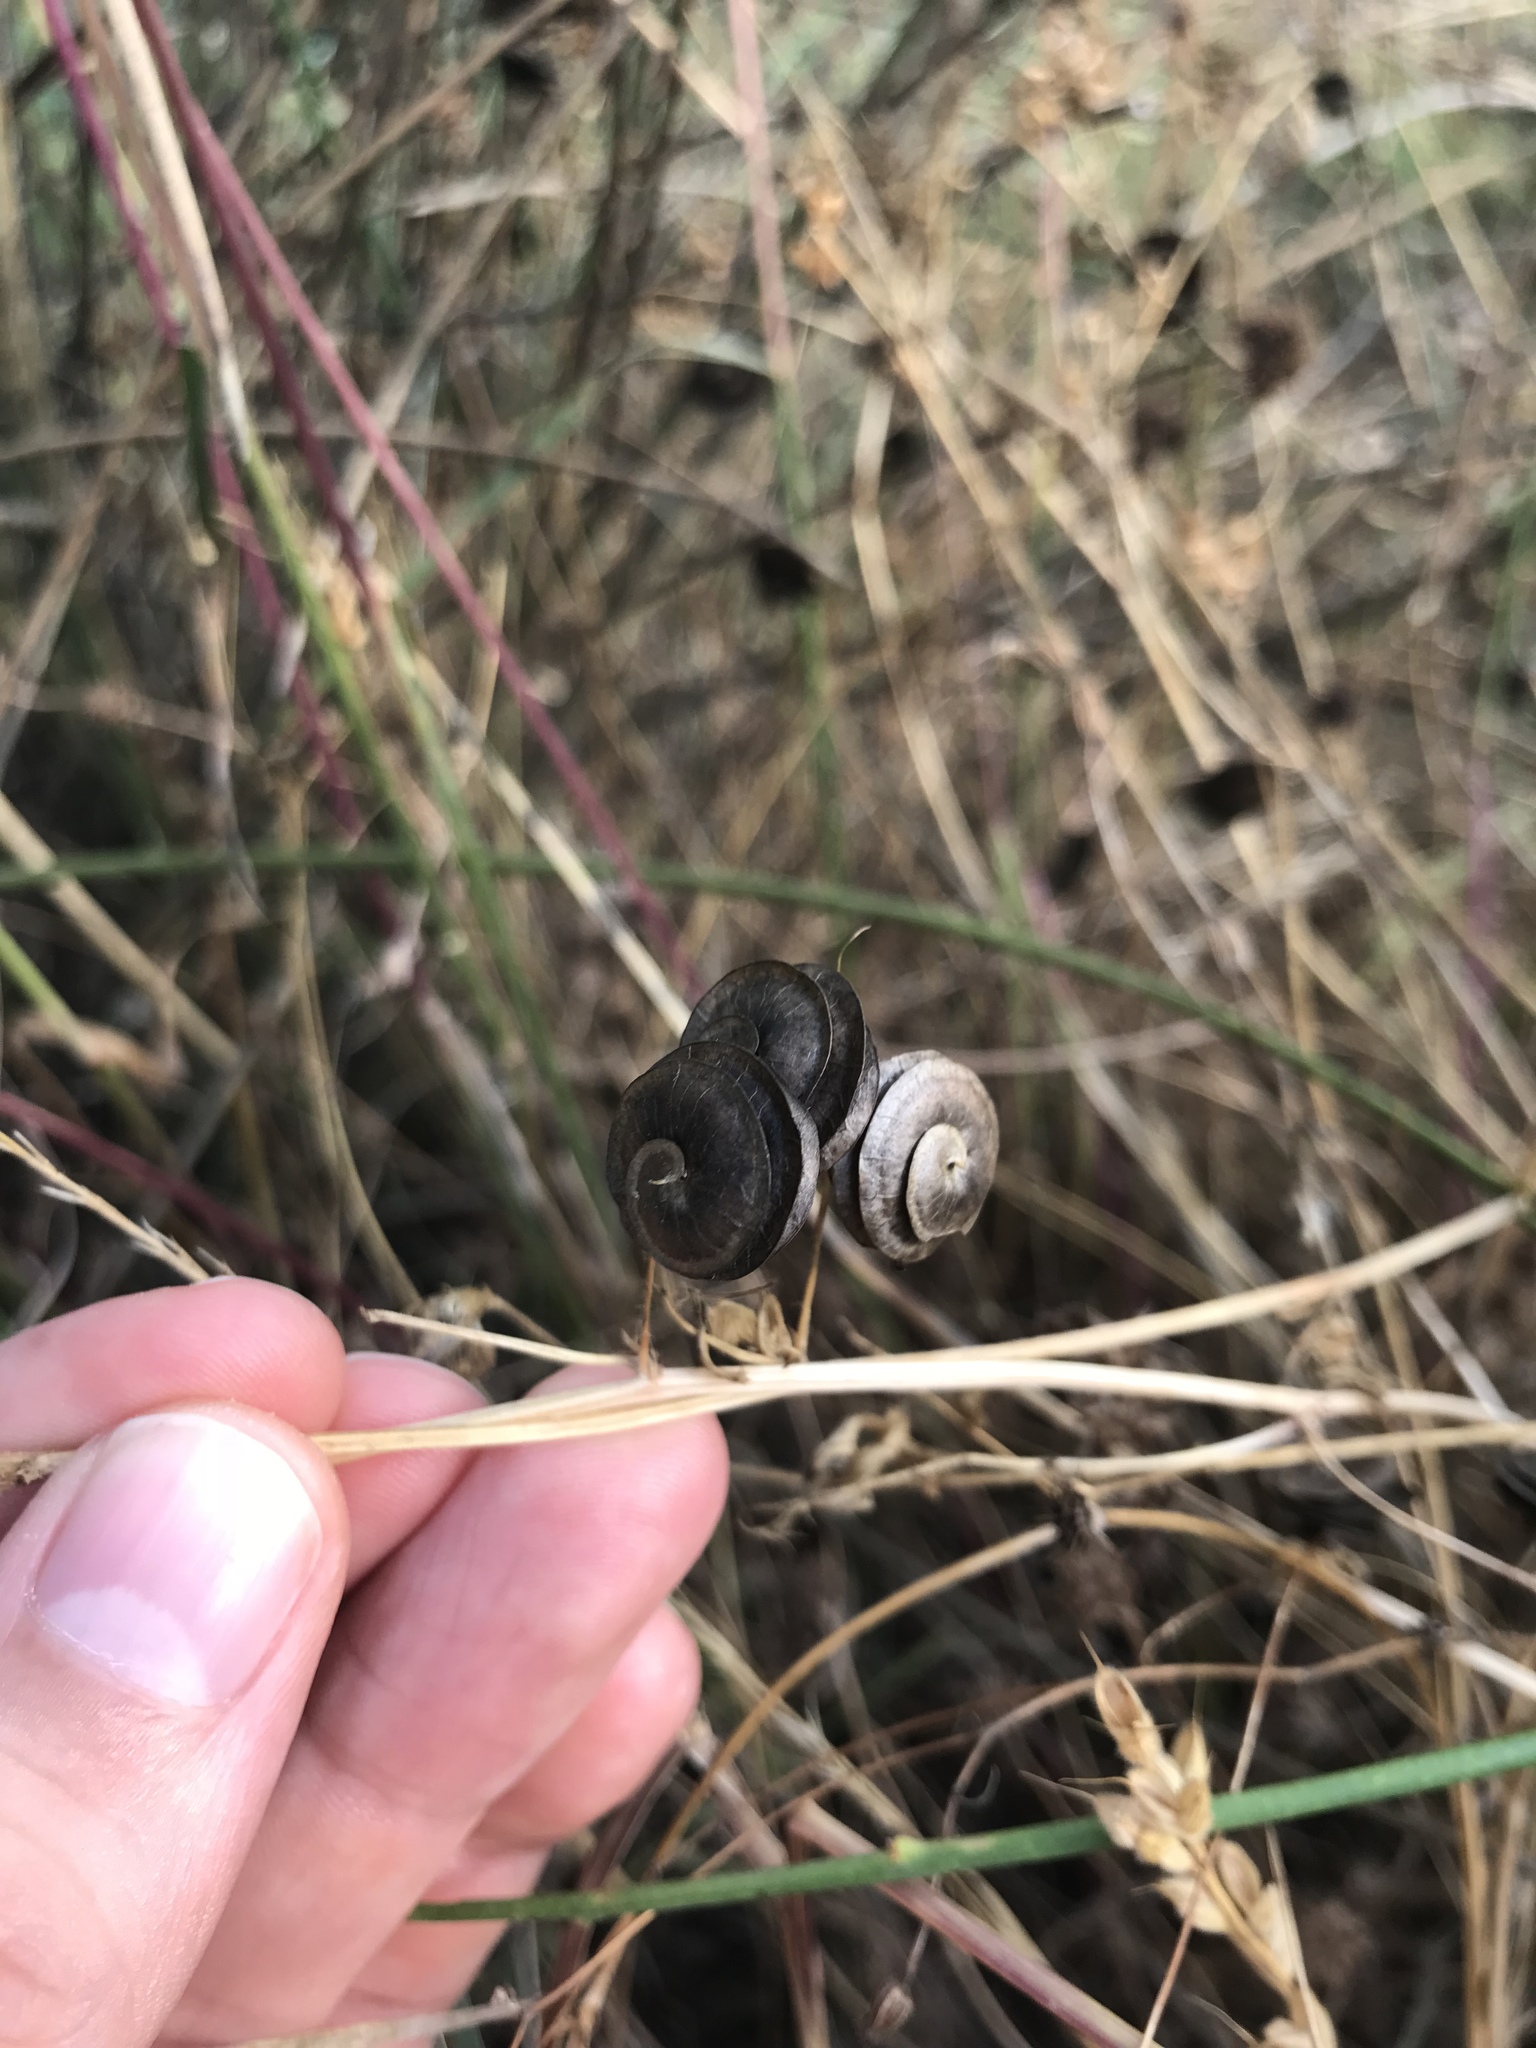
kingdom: Plantae
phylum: Tracheophyta
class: Magnoliopsida
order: Fabales
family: Fabaceae
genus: Medicago
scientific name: Medicago orbicularis
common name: Button medick
